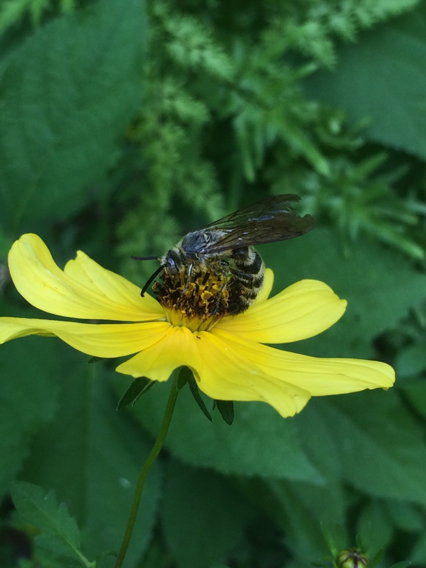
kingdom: Animalia
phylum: Arthropoda
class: Insecta
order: Hymenoptera
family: Scoliidae
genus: Dielis
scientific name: Dielis
